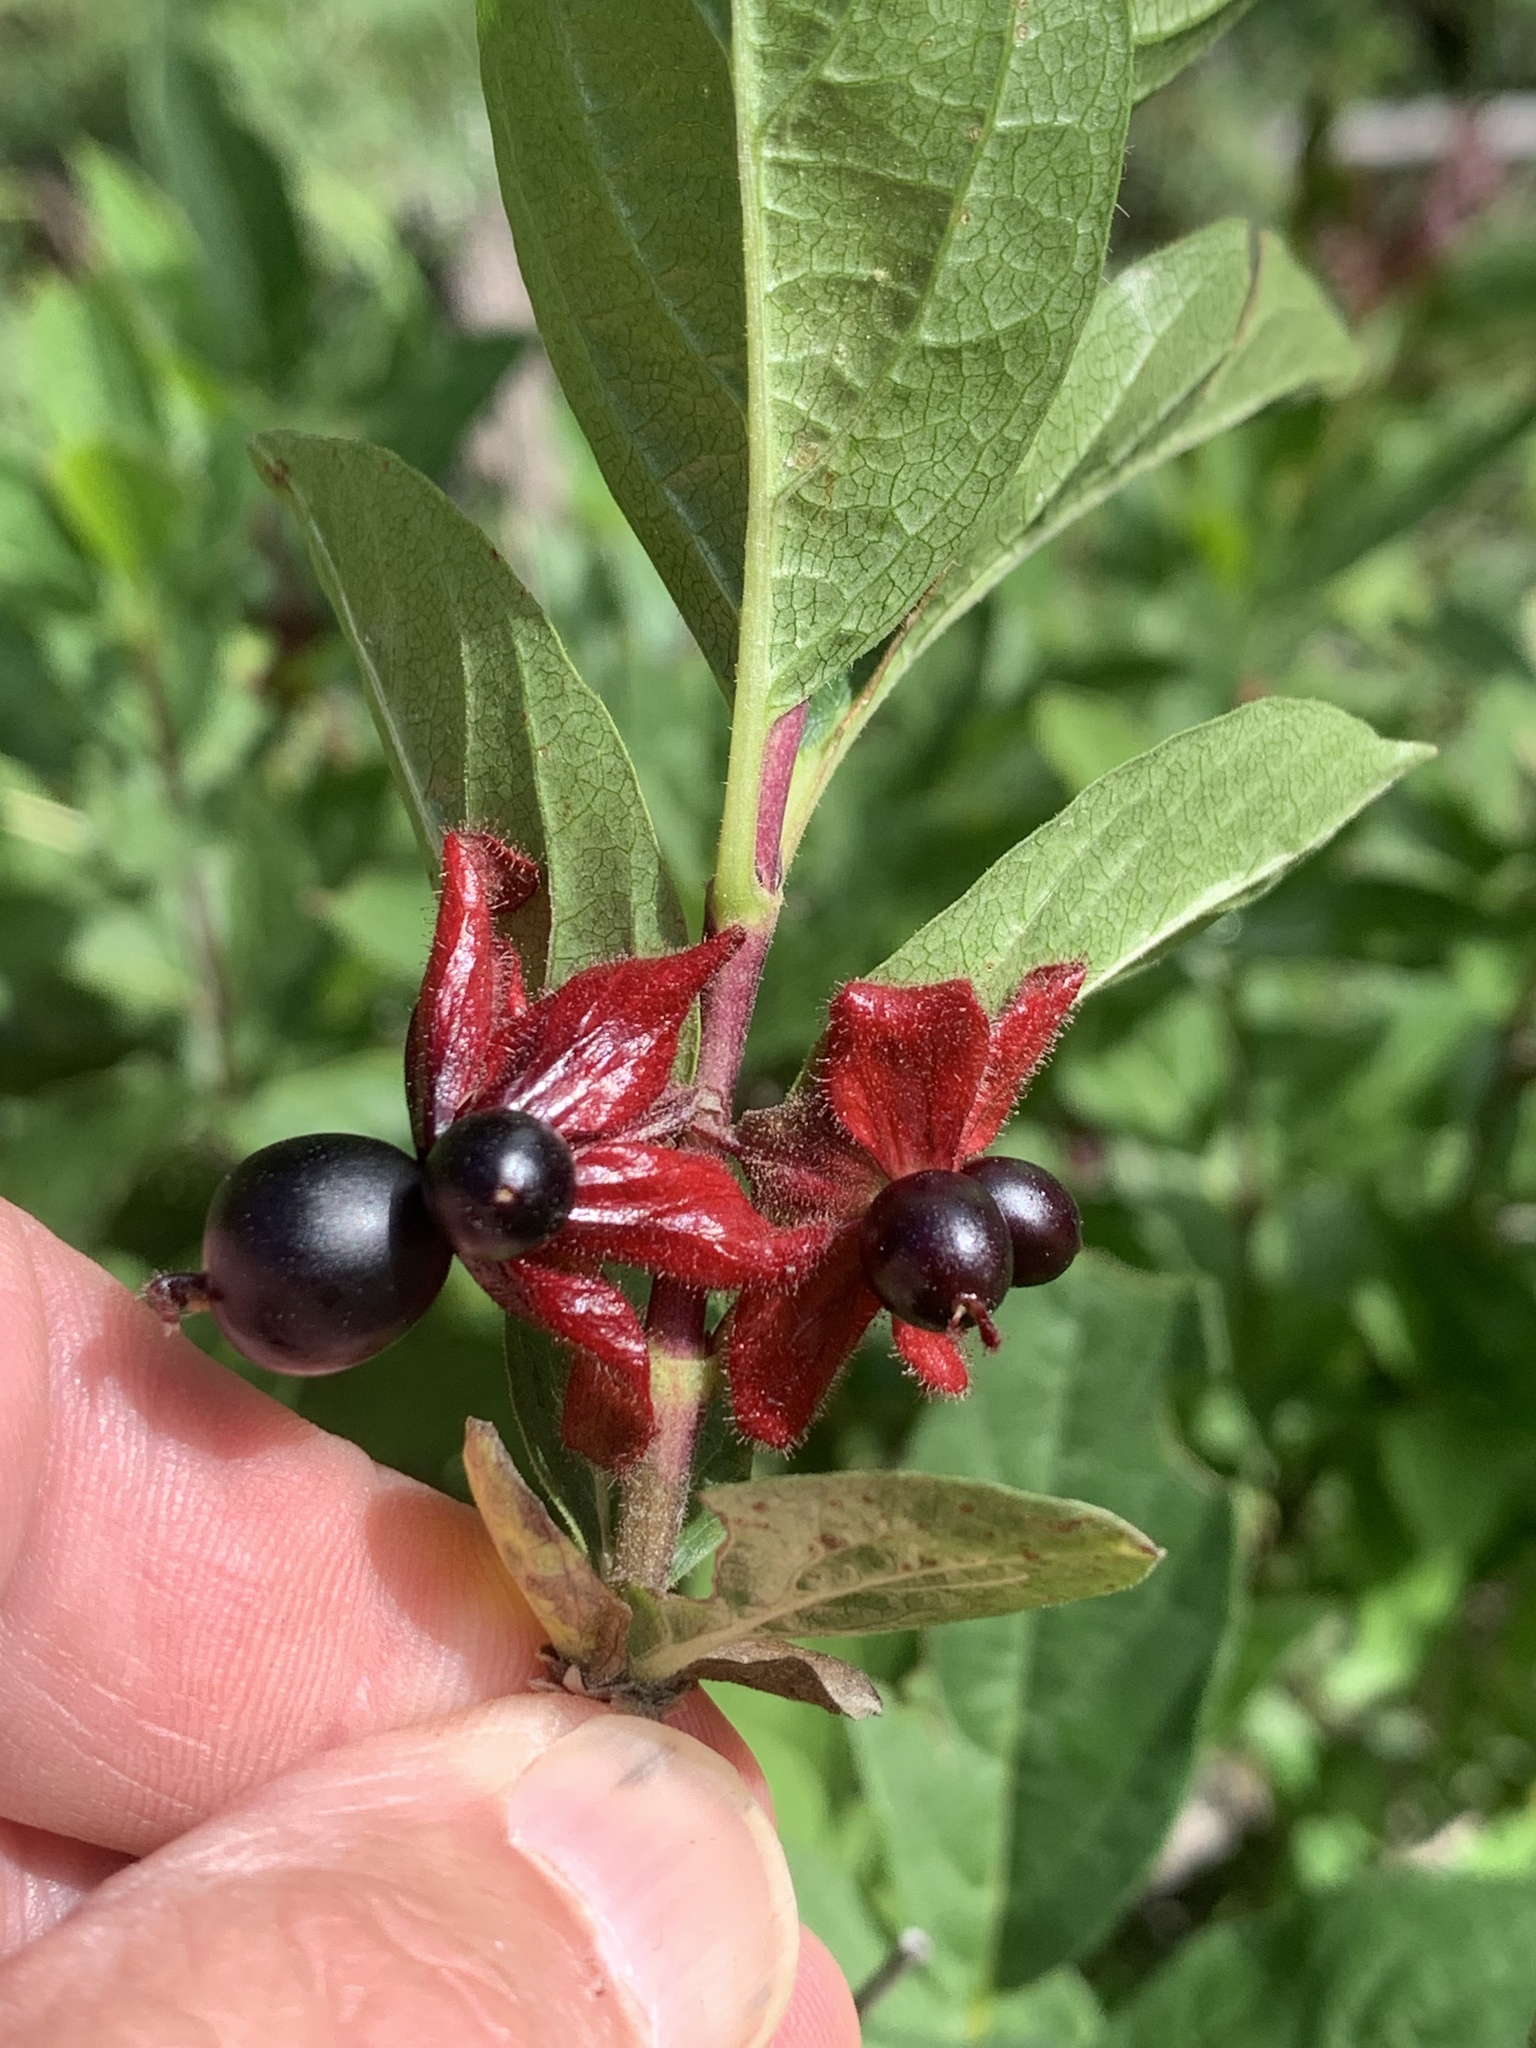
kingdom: Plantae
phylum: Tracheophyta
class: Magnoliopsida
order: Dipsacales
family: Caprifoliaceae
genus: Lonicera
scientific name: Lonicera involucrata
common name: Californian honeysuckle
